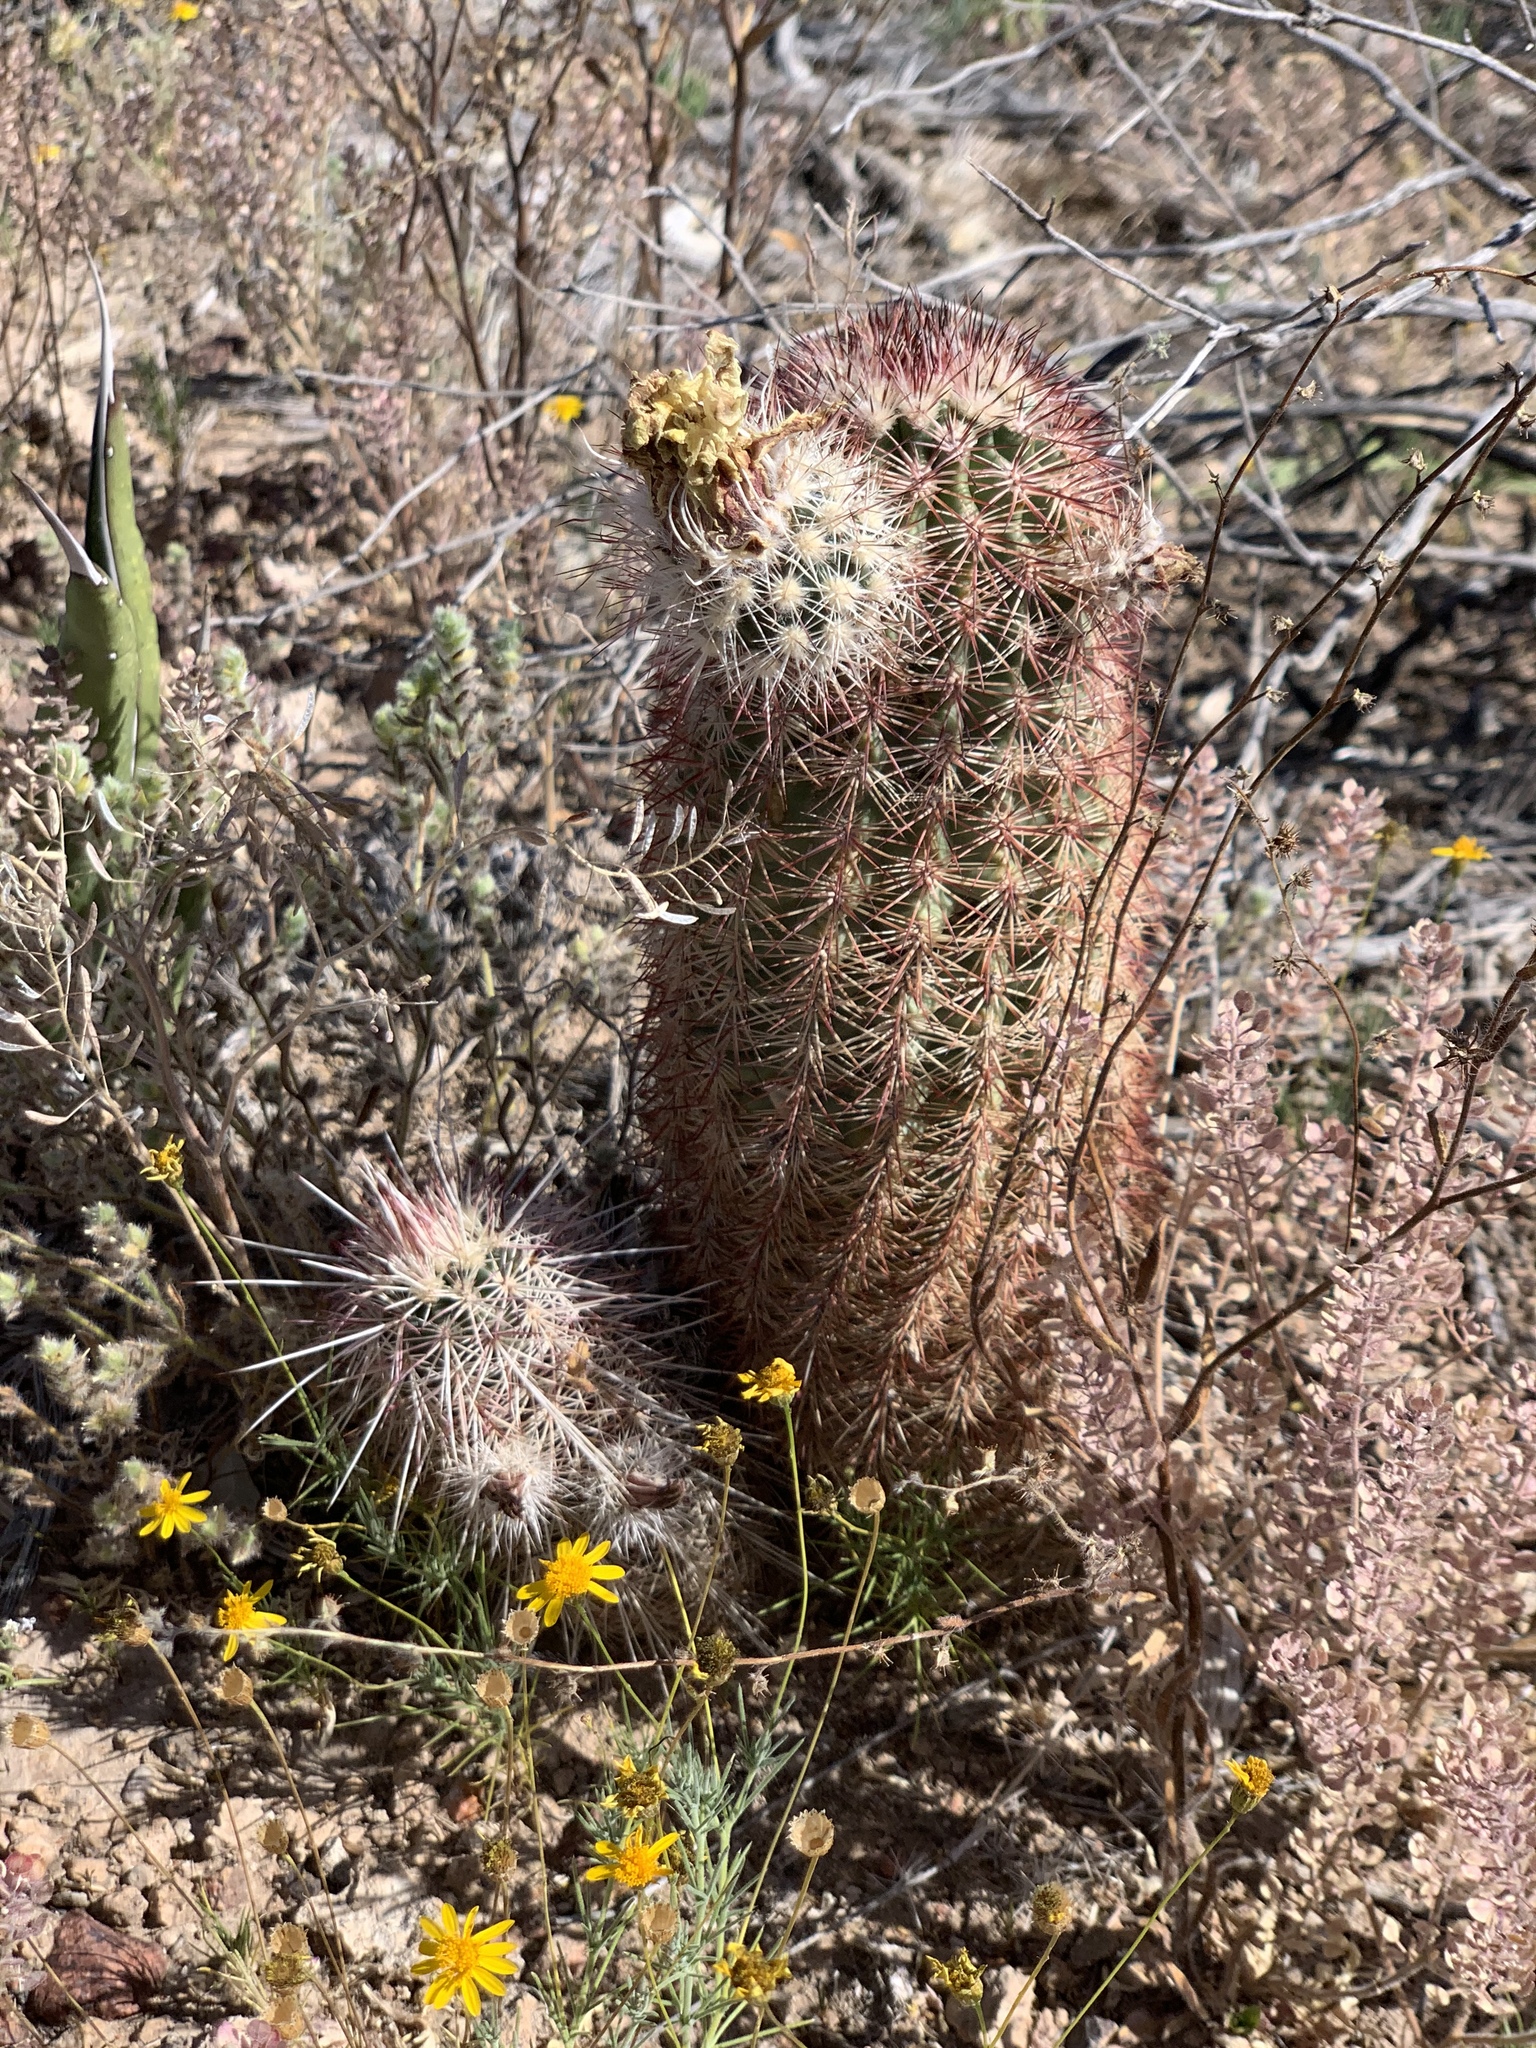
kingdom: Plantae
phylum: Tracheophyta
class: Magnoliopsida
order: Caryophyllales
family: Cactaceae
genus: Echinocereus
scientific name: Echinocereus dasyacanthus
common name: Spiny hedgehog cactus
